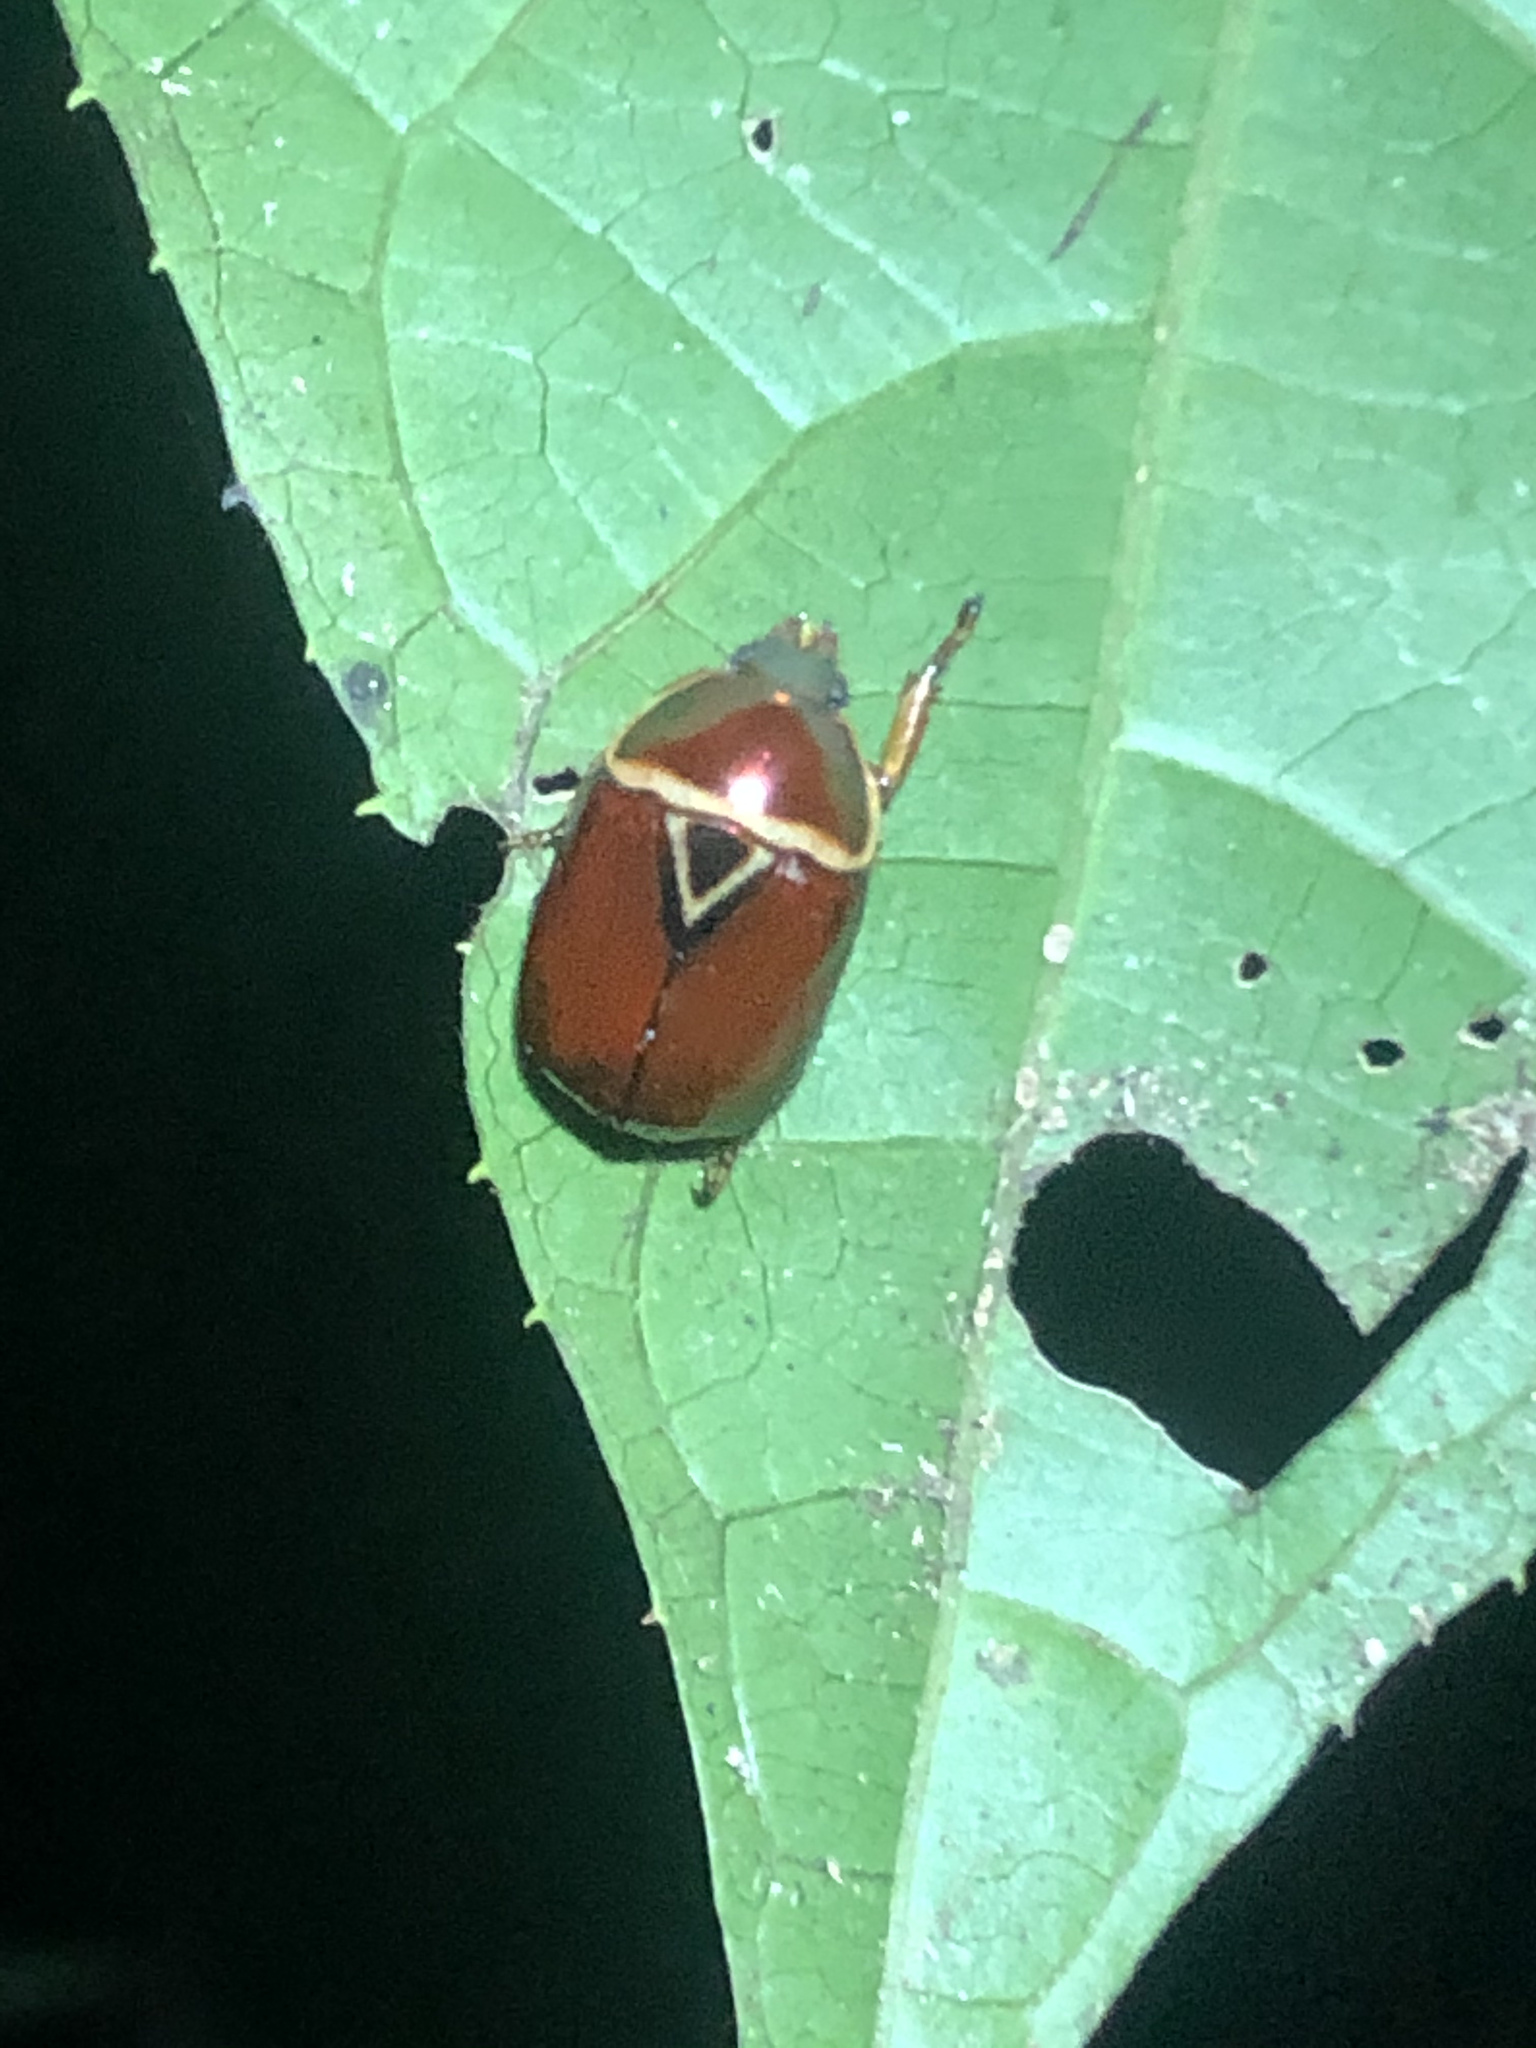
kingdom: Animalia
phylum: Arthropoda
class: Insecta
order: Coleoptera
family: Scarabaeidae
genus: Lagochile
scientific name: Lagochile trigona
